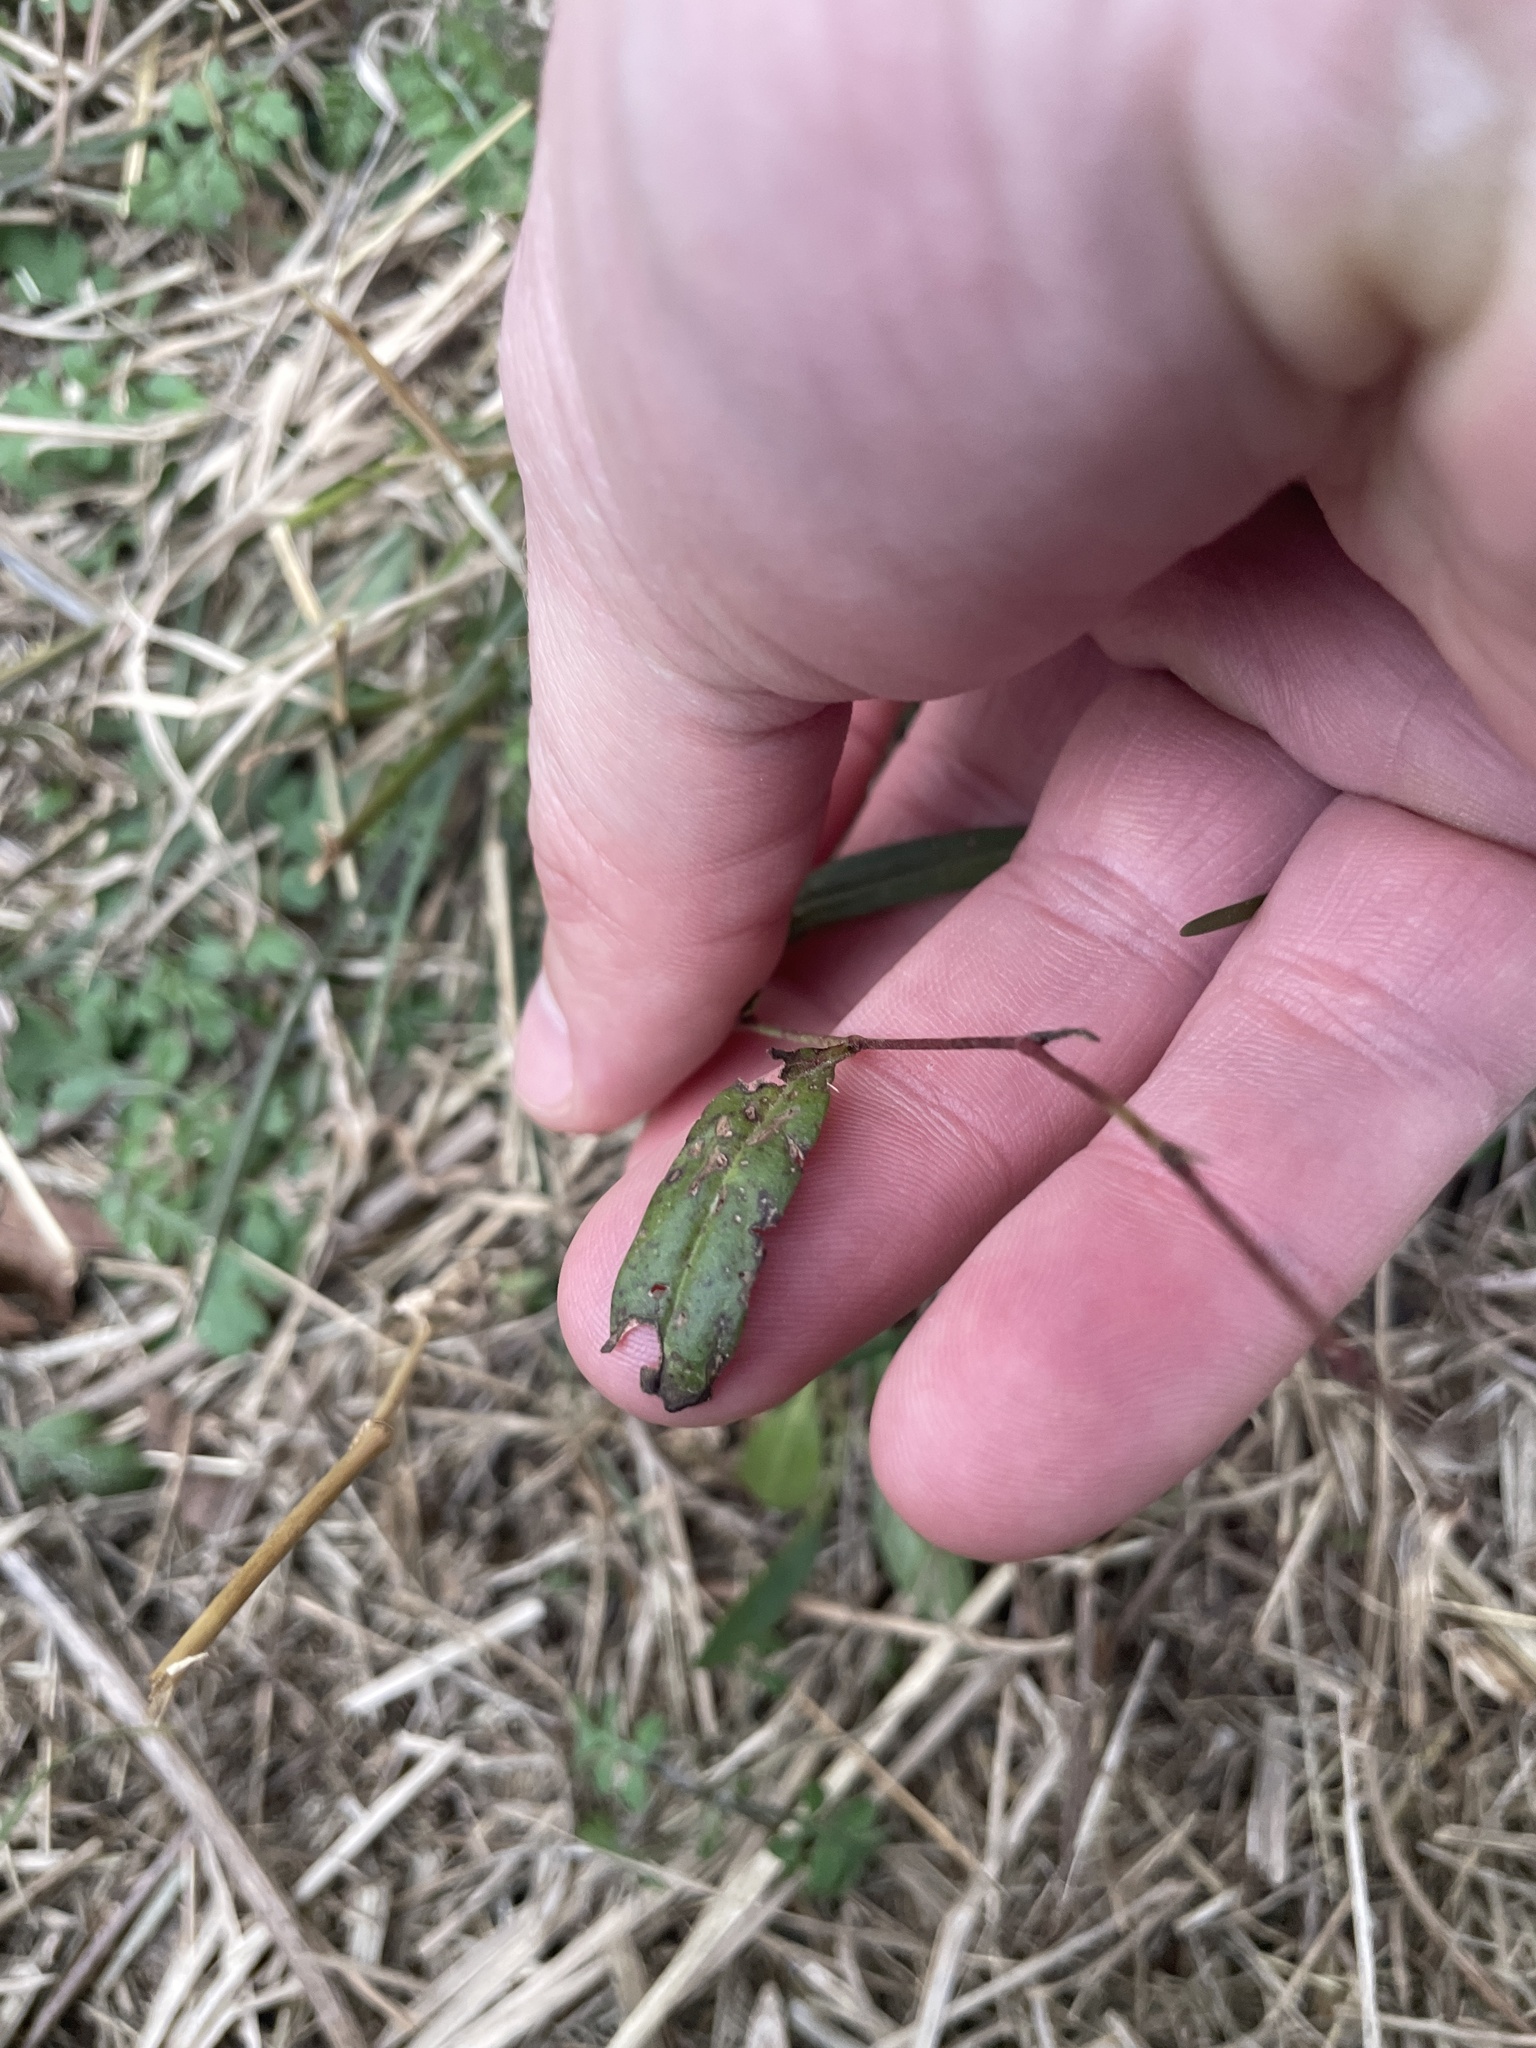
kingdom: Plantae
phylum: Tracheophyta
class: Magnoliopsida
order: Piperales
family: Aristolochiaceae
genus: Aristolochia
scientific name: Aristolochia erecta
